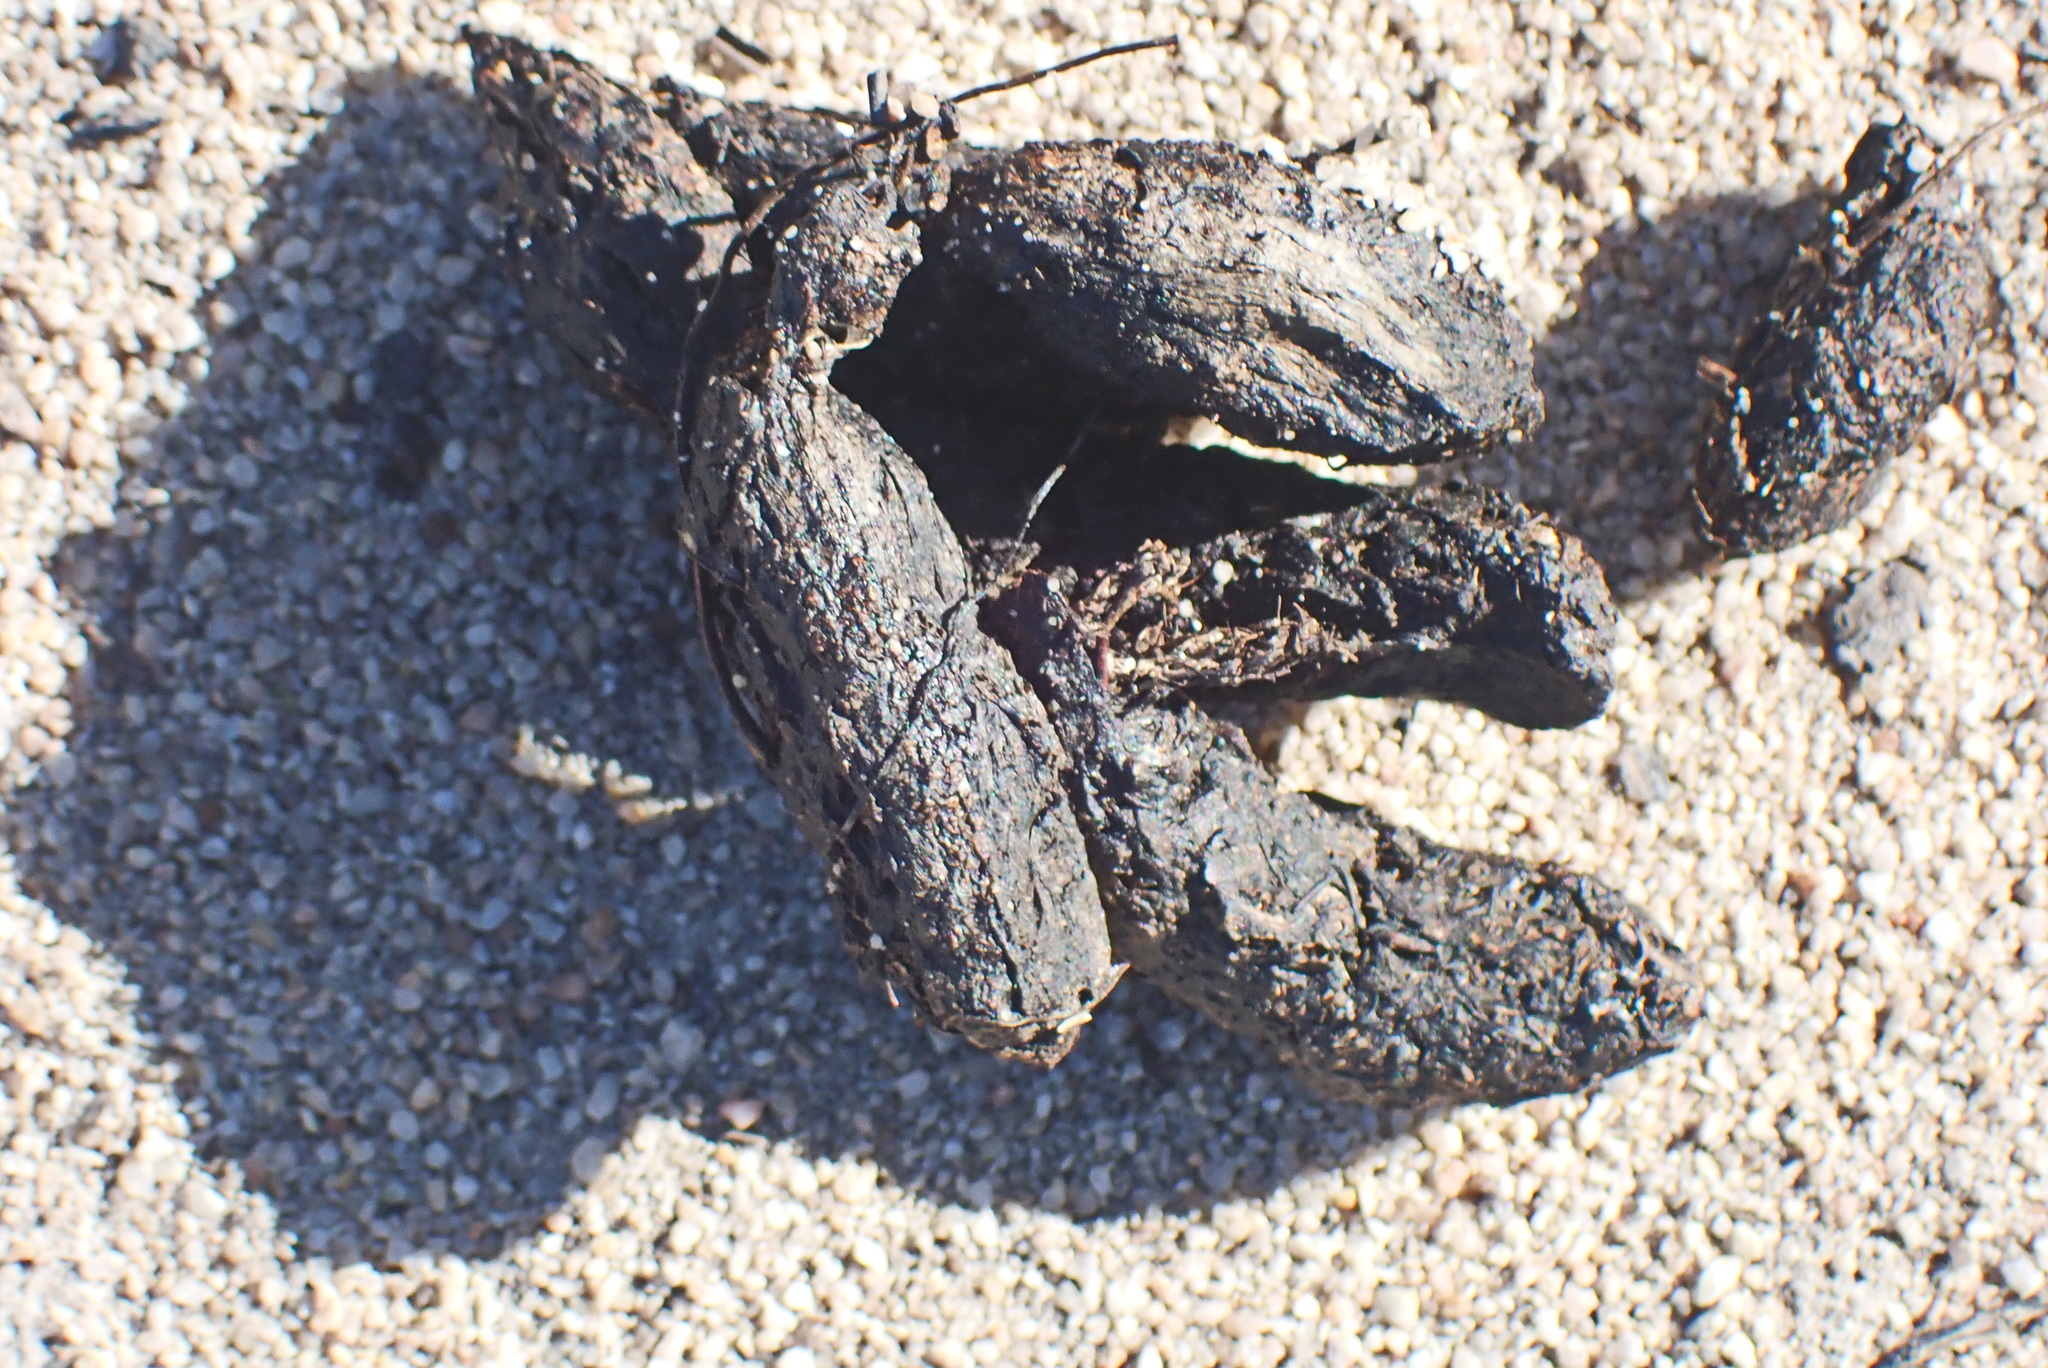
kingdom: Animalia
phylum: Chordata
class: Mammalia
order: Rodentia
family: Hystricidae
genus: Hystrix
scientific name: Hystrix africaeaustralis
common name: Cape porcupine
